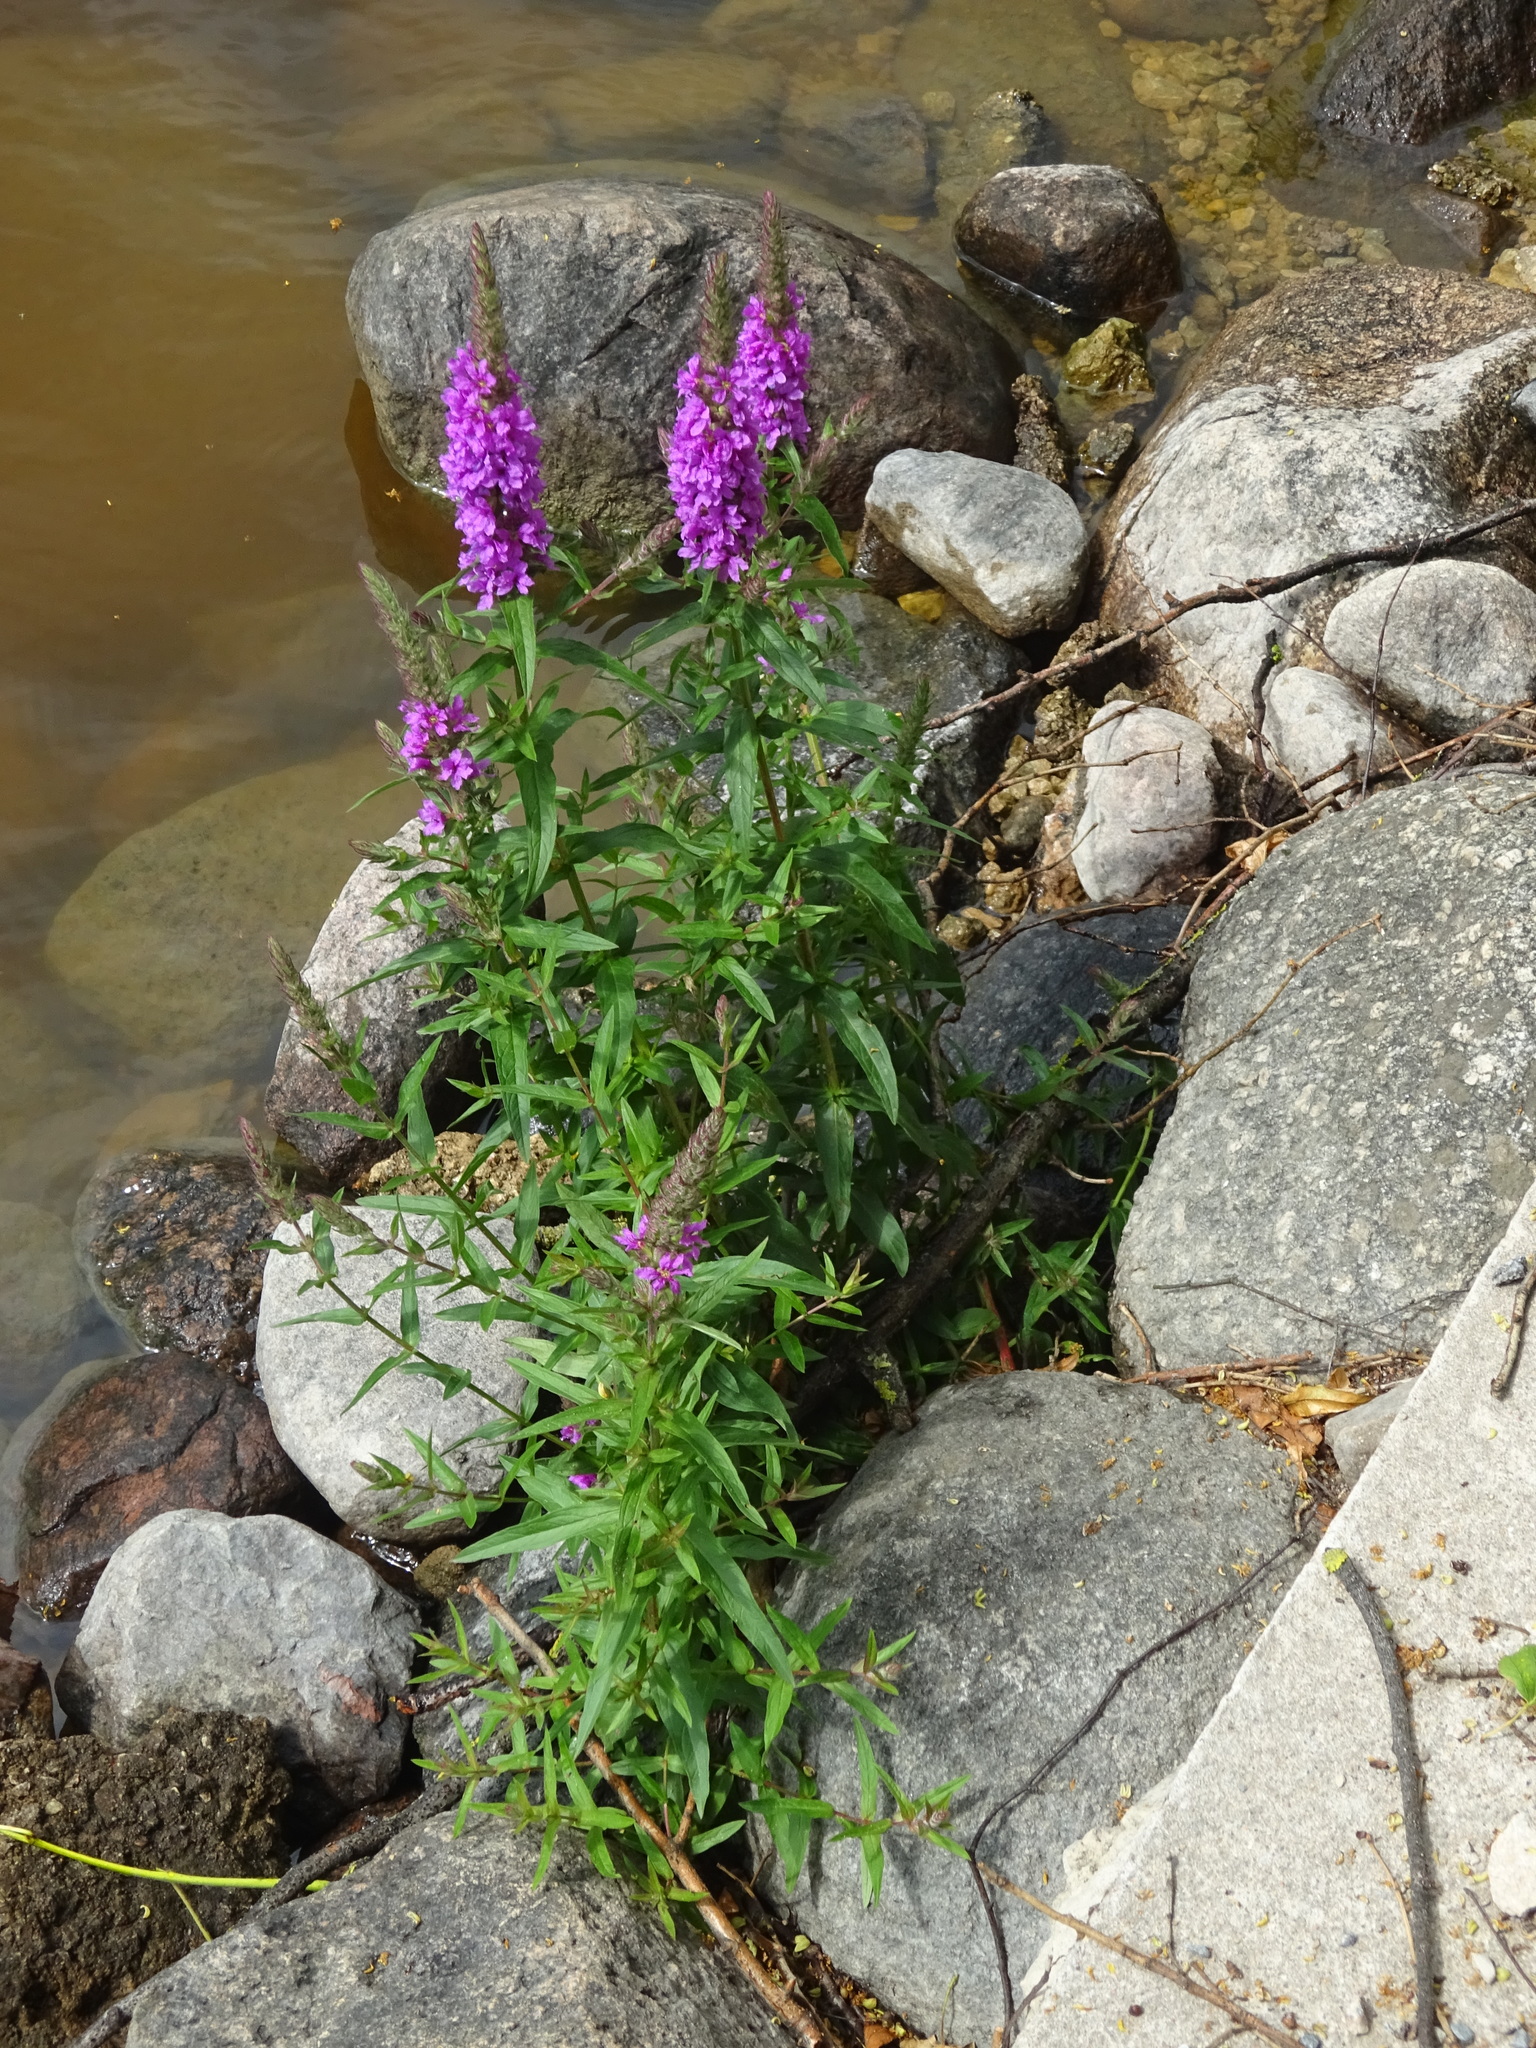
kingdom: Plantae
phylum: Tracheophyta
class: Magnoliopsida
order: Myrtales
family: Lythraceae
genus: Lythrum
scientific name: Lythrum salicaria
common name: Purple loosestrife
